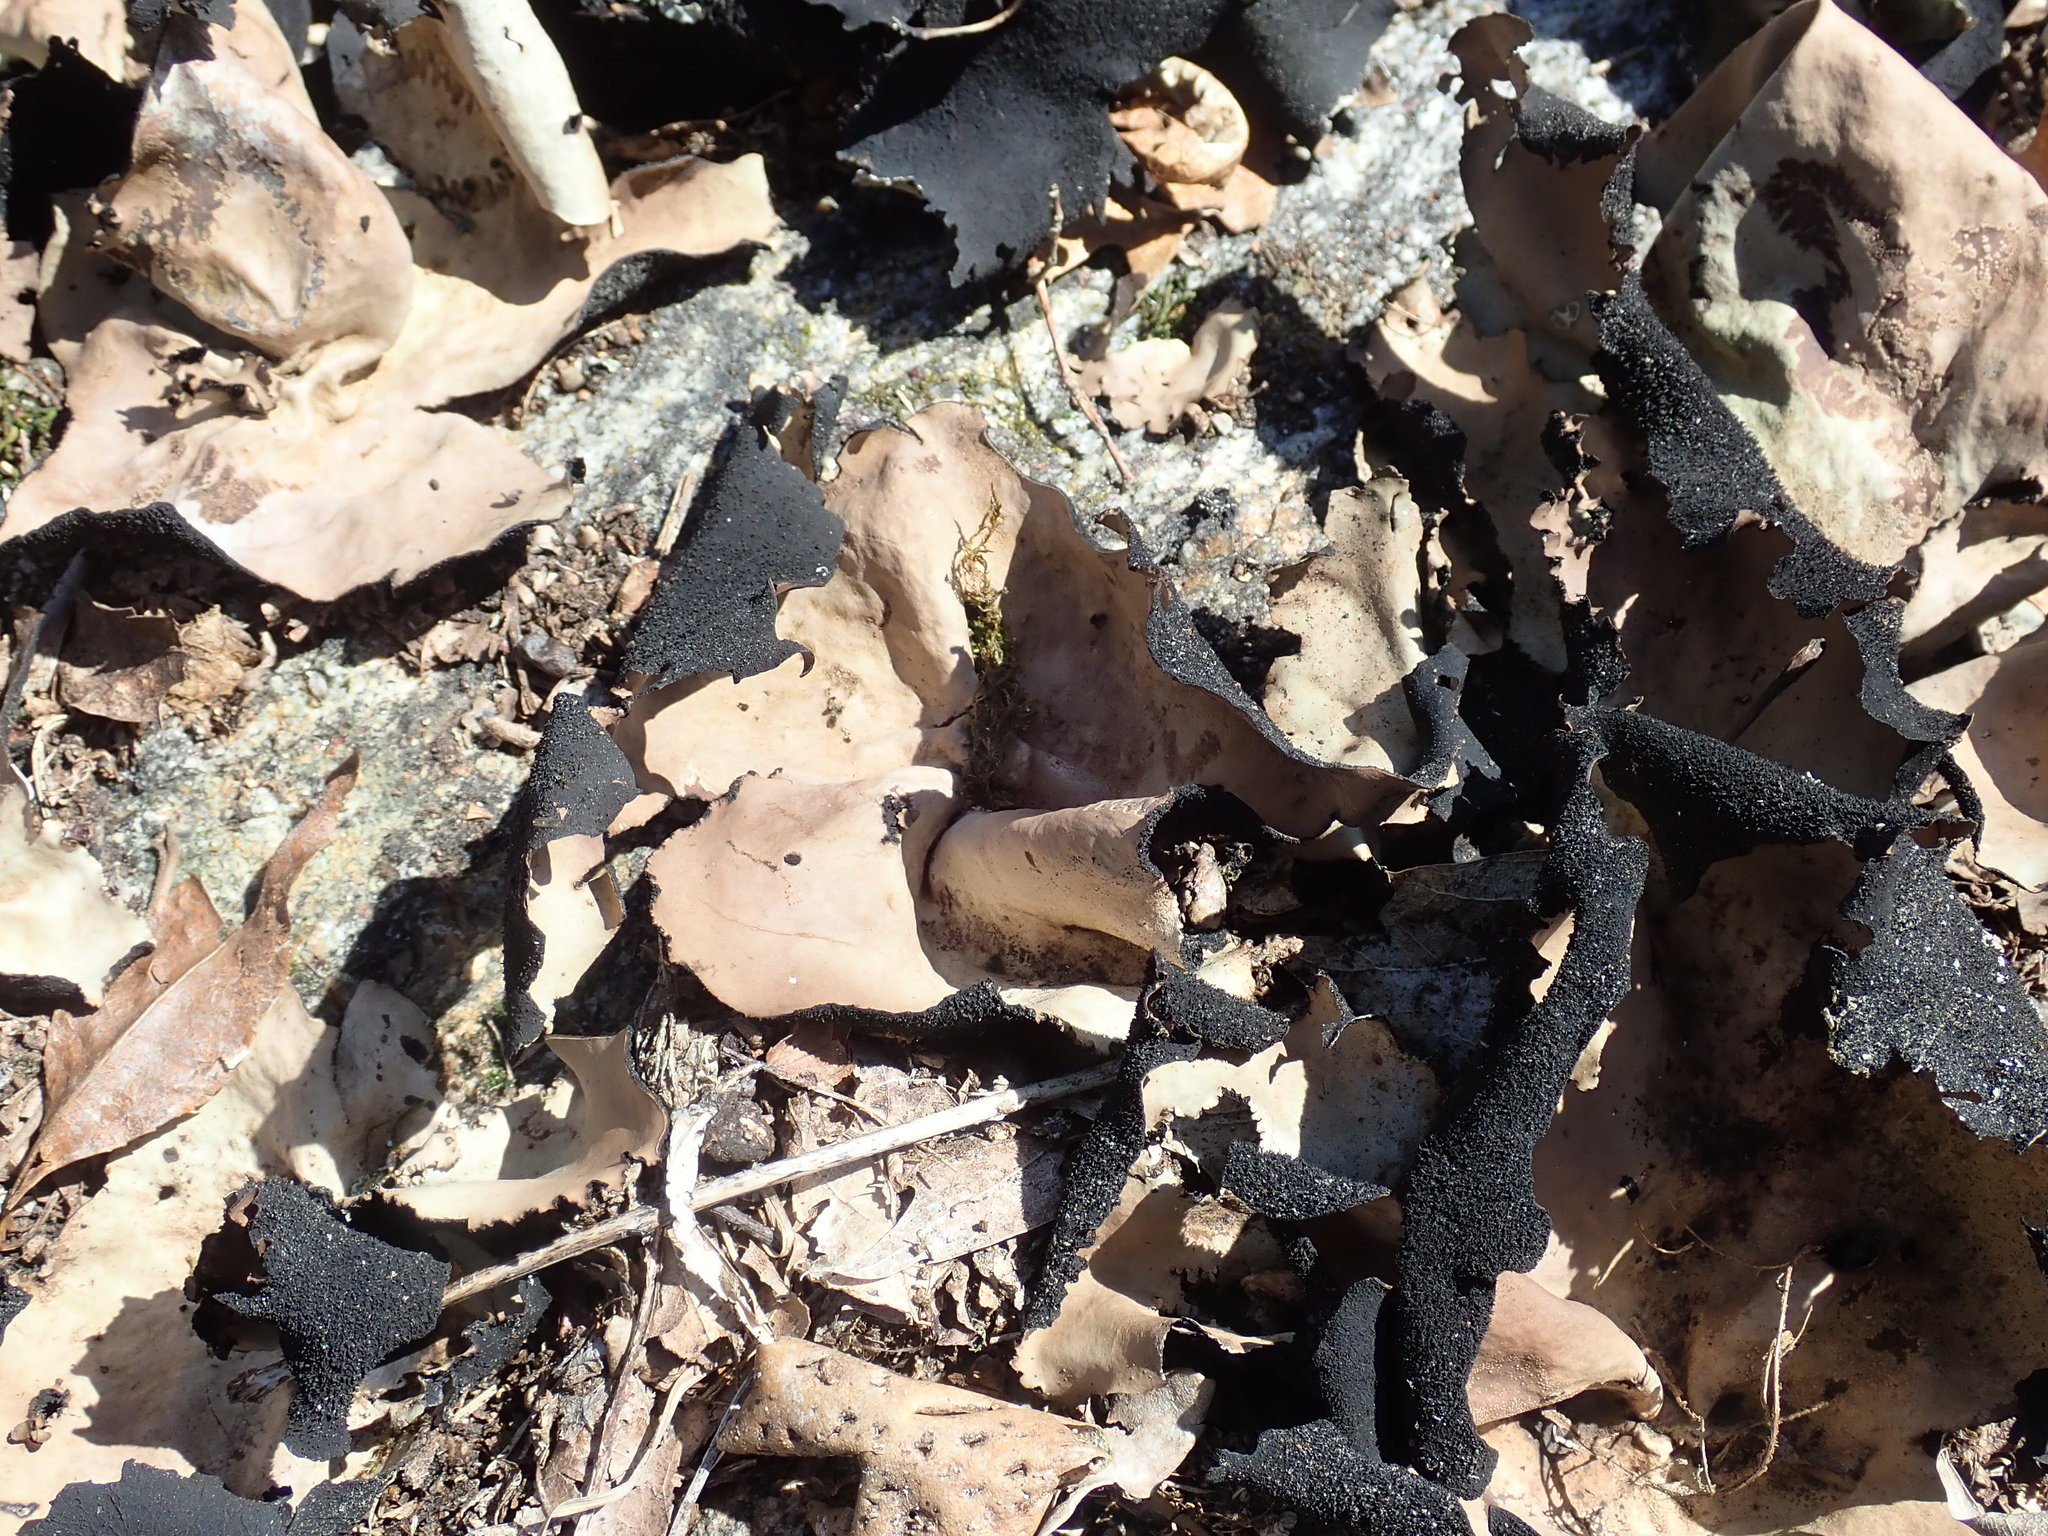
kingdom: Fungi
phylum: Ascomycota
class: Lecanoromycetes
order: Umbilicariales
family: Umbilicariaceae
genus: Umbilicaria
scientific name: Umbilicaria mammulata
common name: Smooth rock tripe
